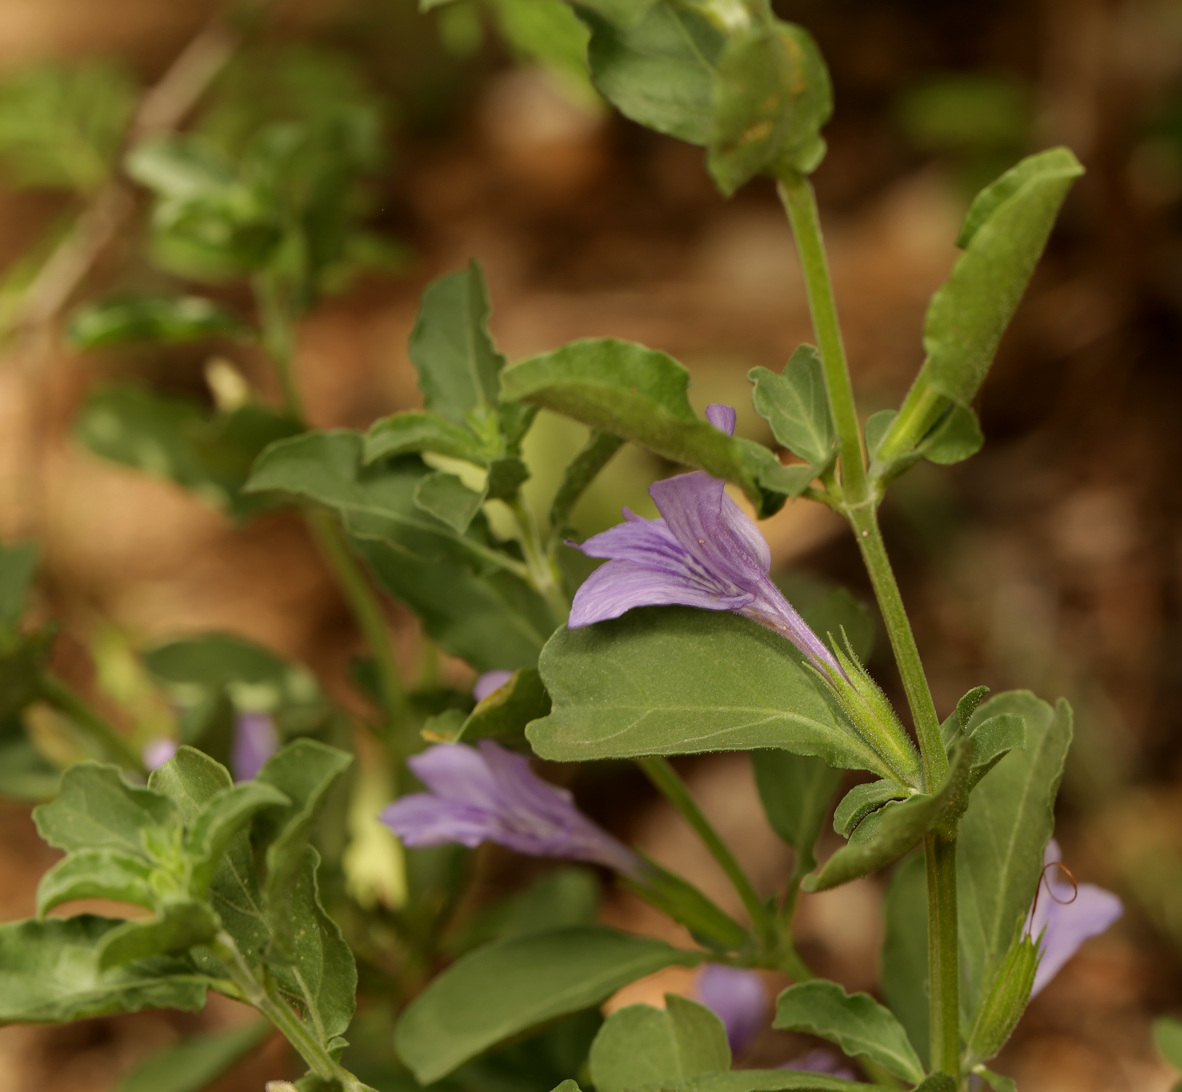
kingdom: Plantae
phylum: Tracheophyta
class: Magnoliopsida
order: Lamiales
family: Acanthaceae
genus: Dyschoriste
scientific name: Dyschoriste hildebrandtii
